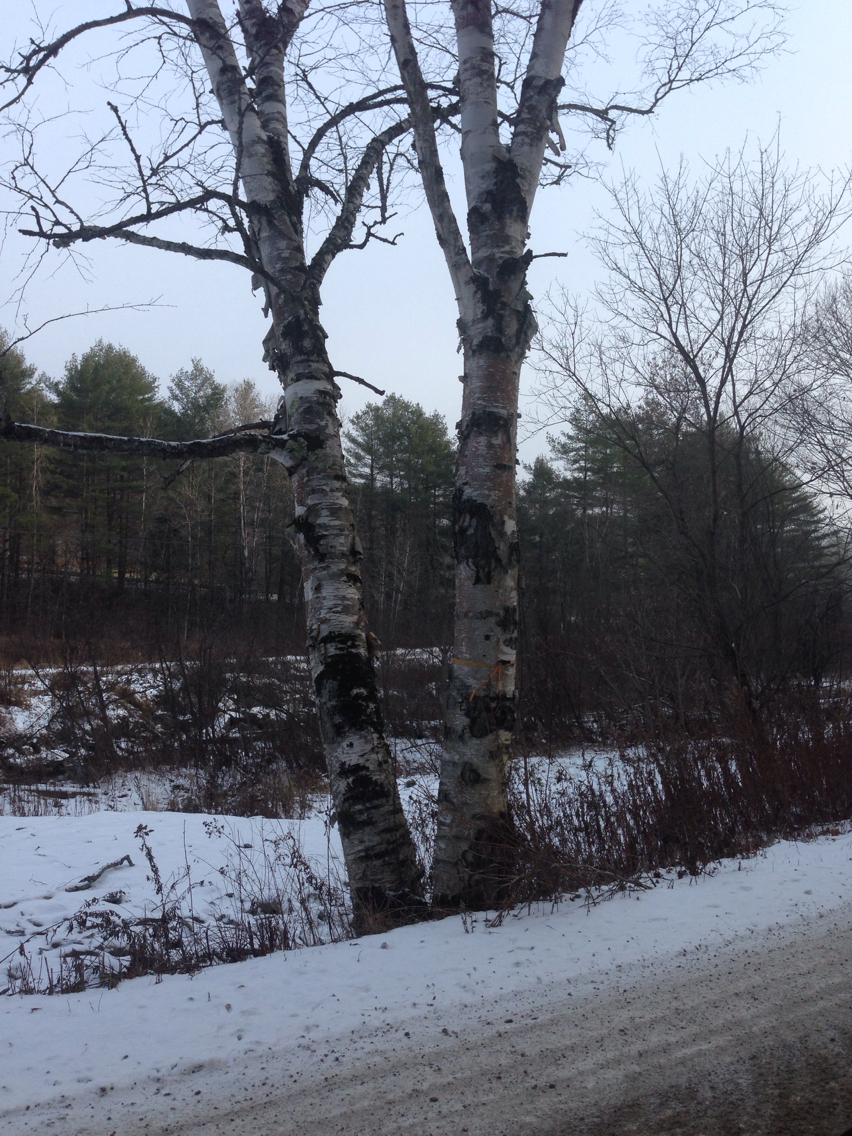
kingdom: Plantae
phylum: Tracheophyta
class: Magnoliopsida
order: Fagales
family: Betulaceae
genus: Betula
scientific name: Betula papyrifera
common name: Paper birch
